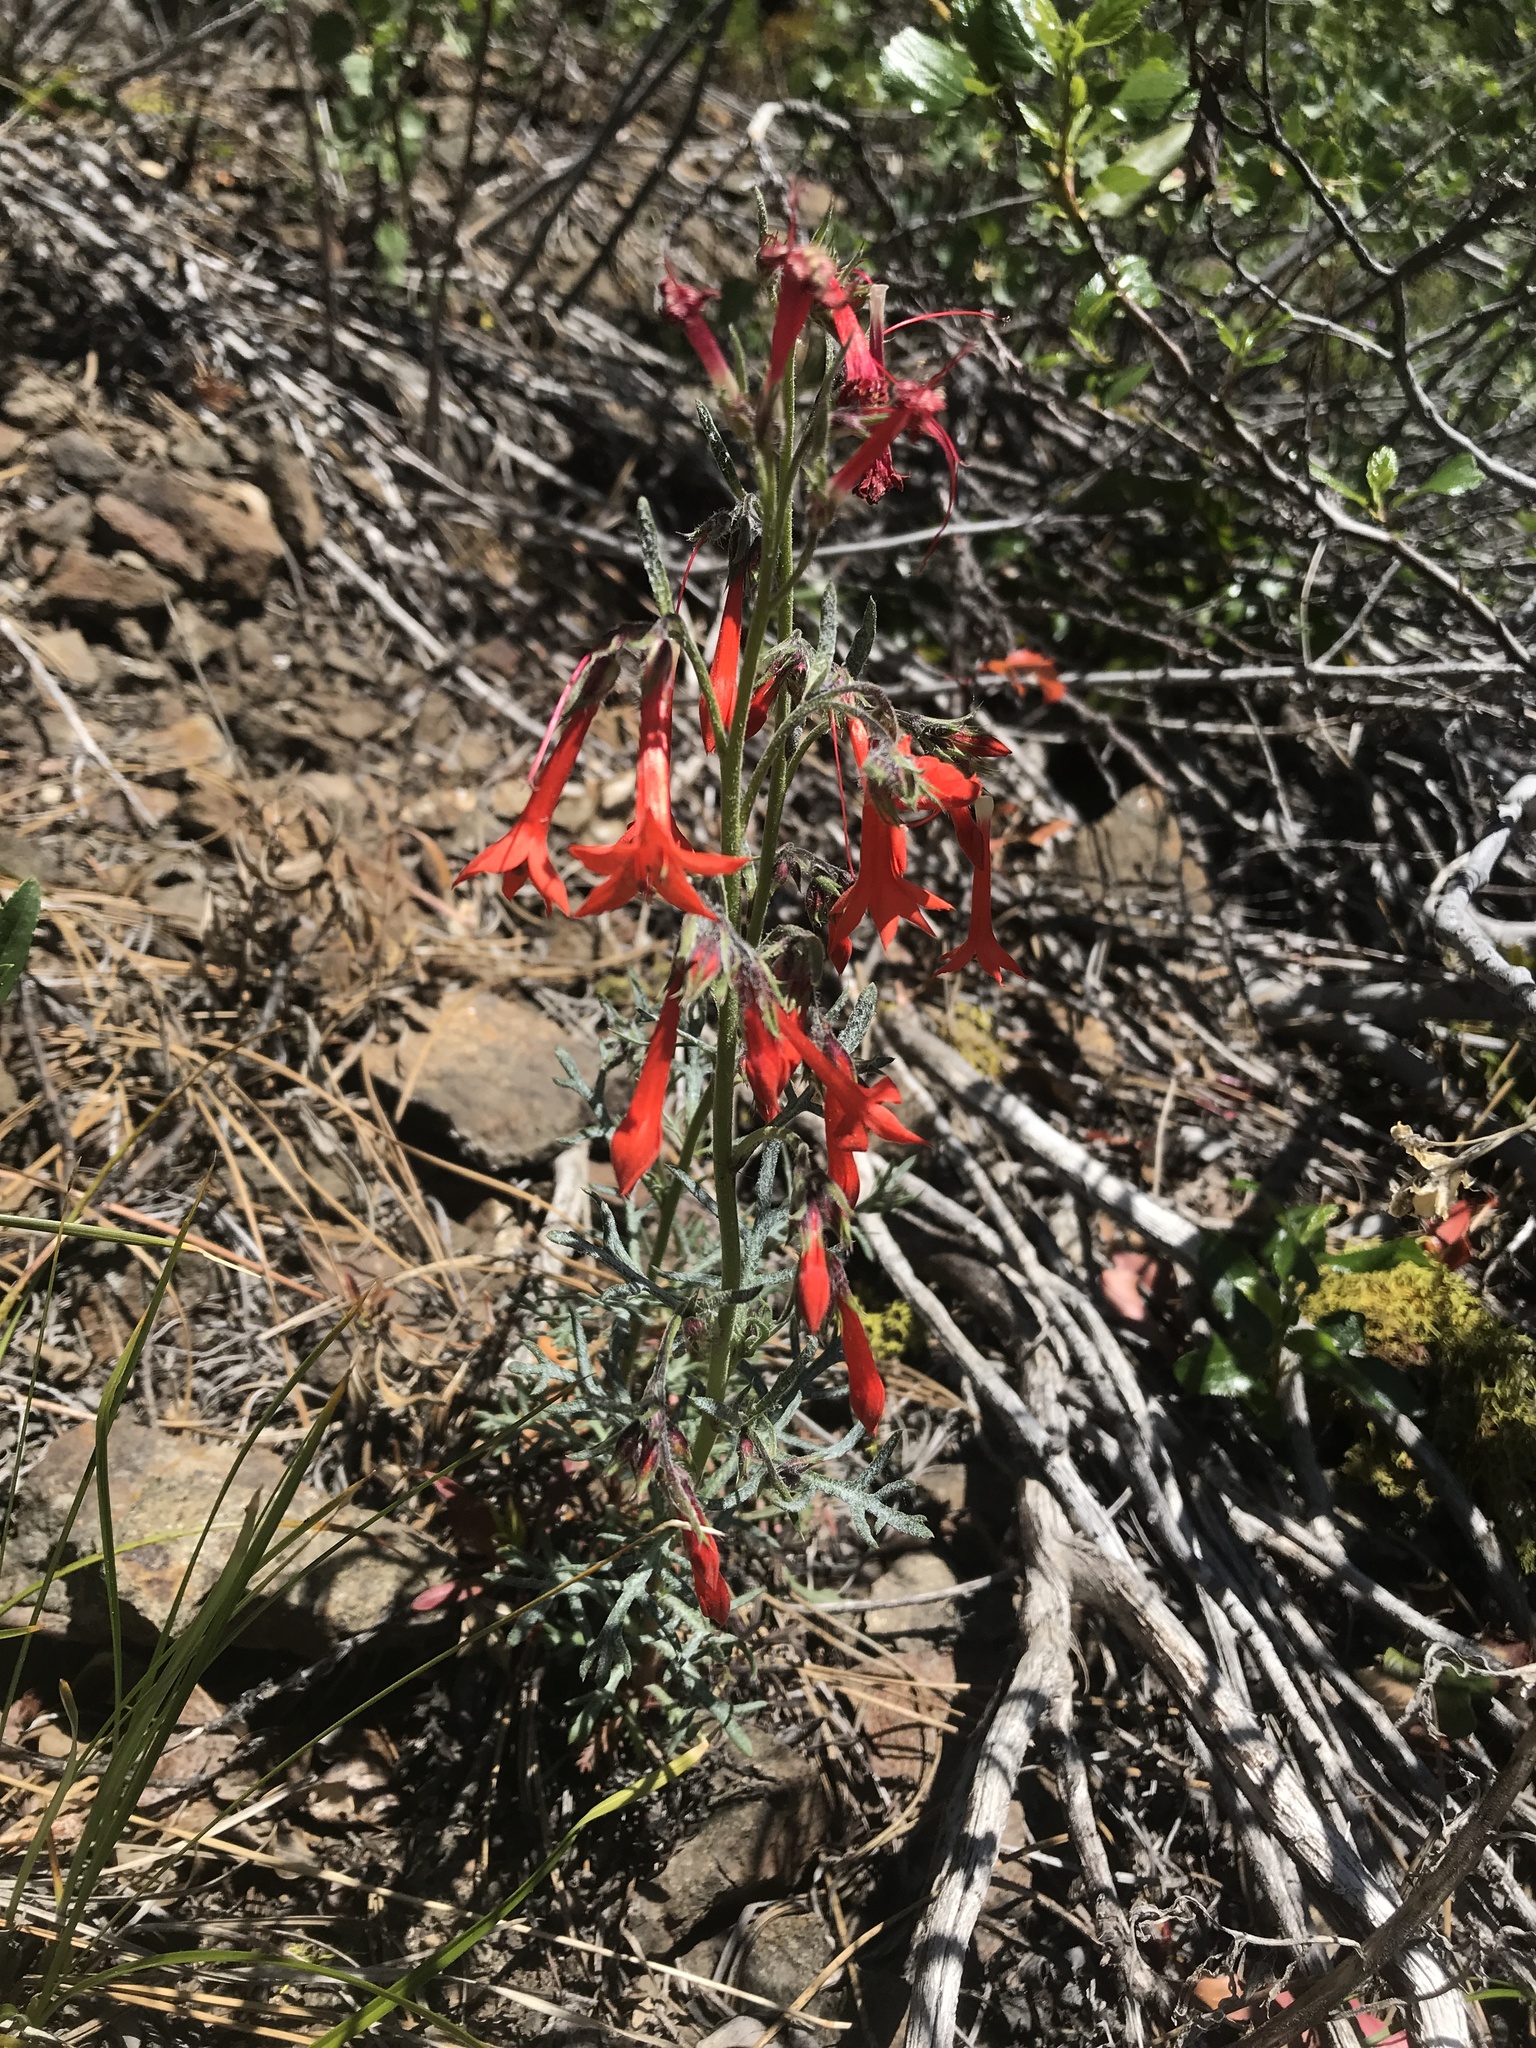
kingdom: Plantae
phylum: Tracheophyta
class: Magnoliopsida
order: Ericales
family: Polemoniaceae
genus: Ipomopsis
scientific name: Ipomopsis aggregata
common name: Scarlet gilia
